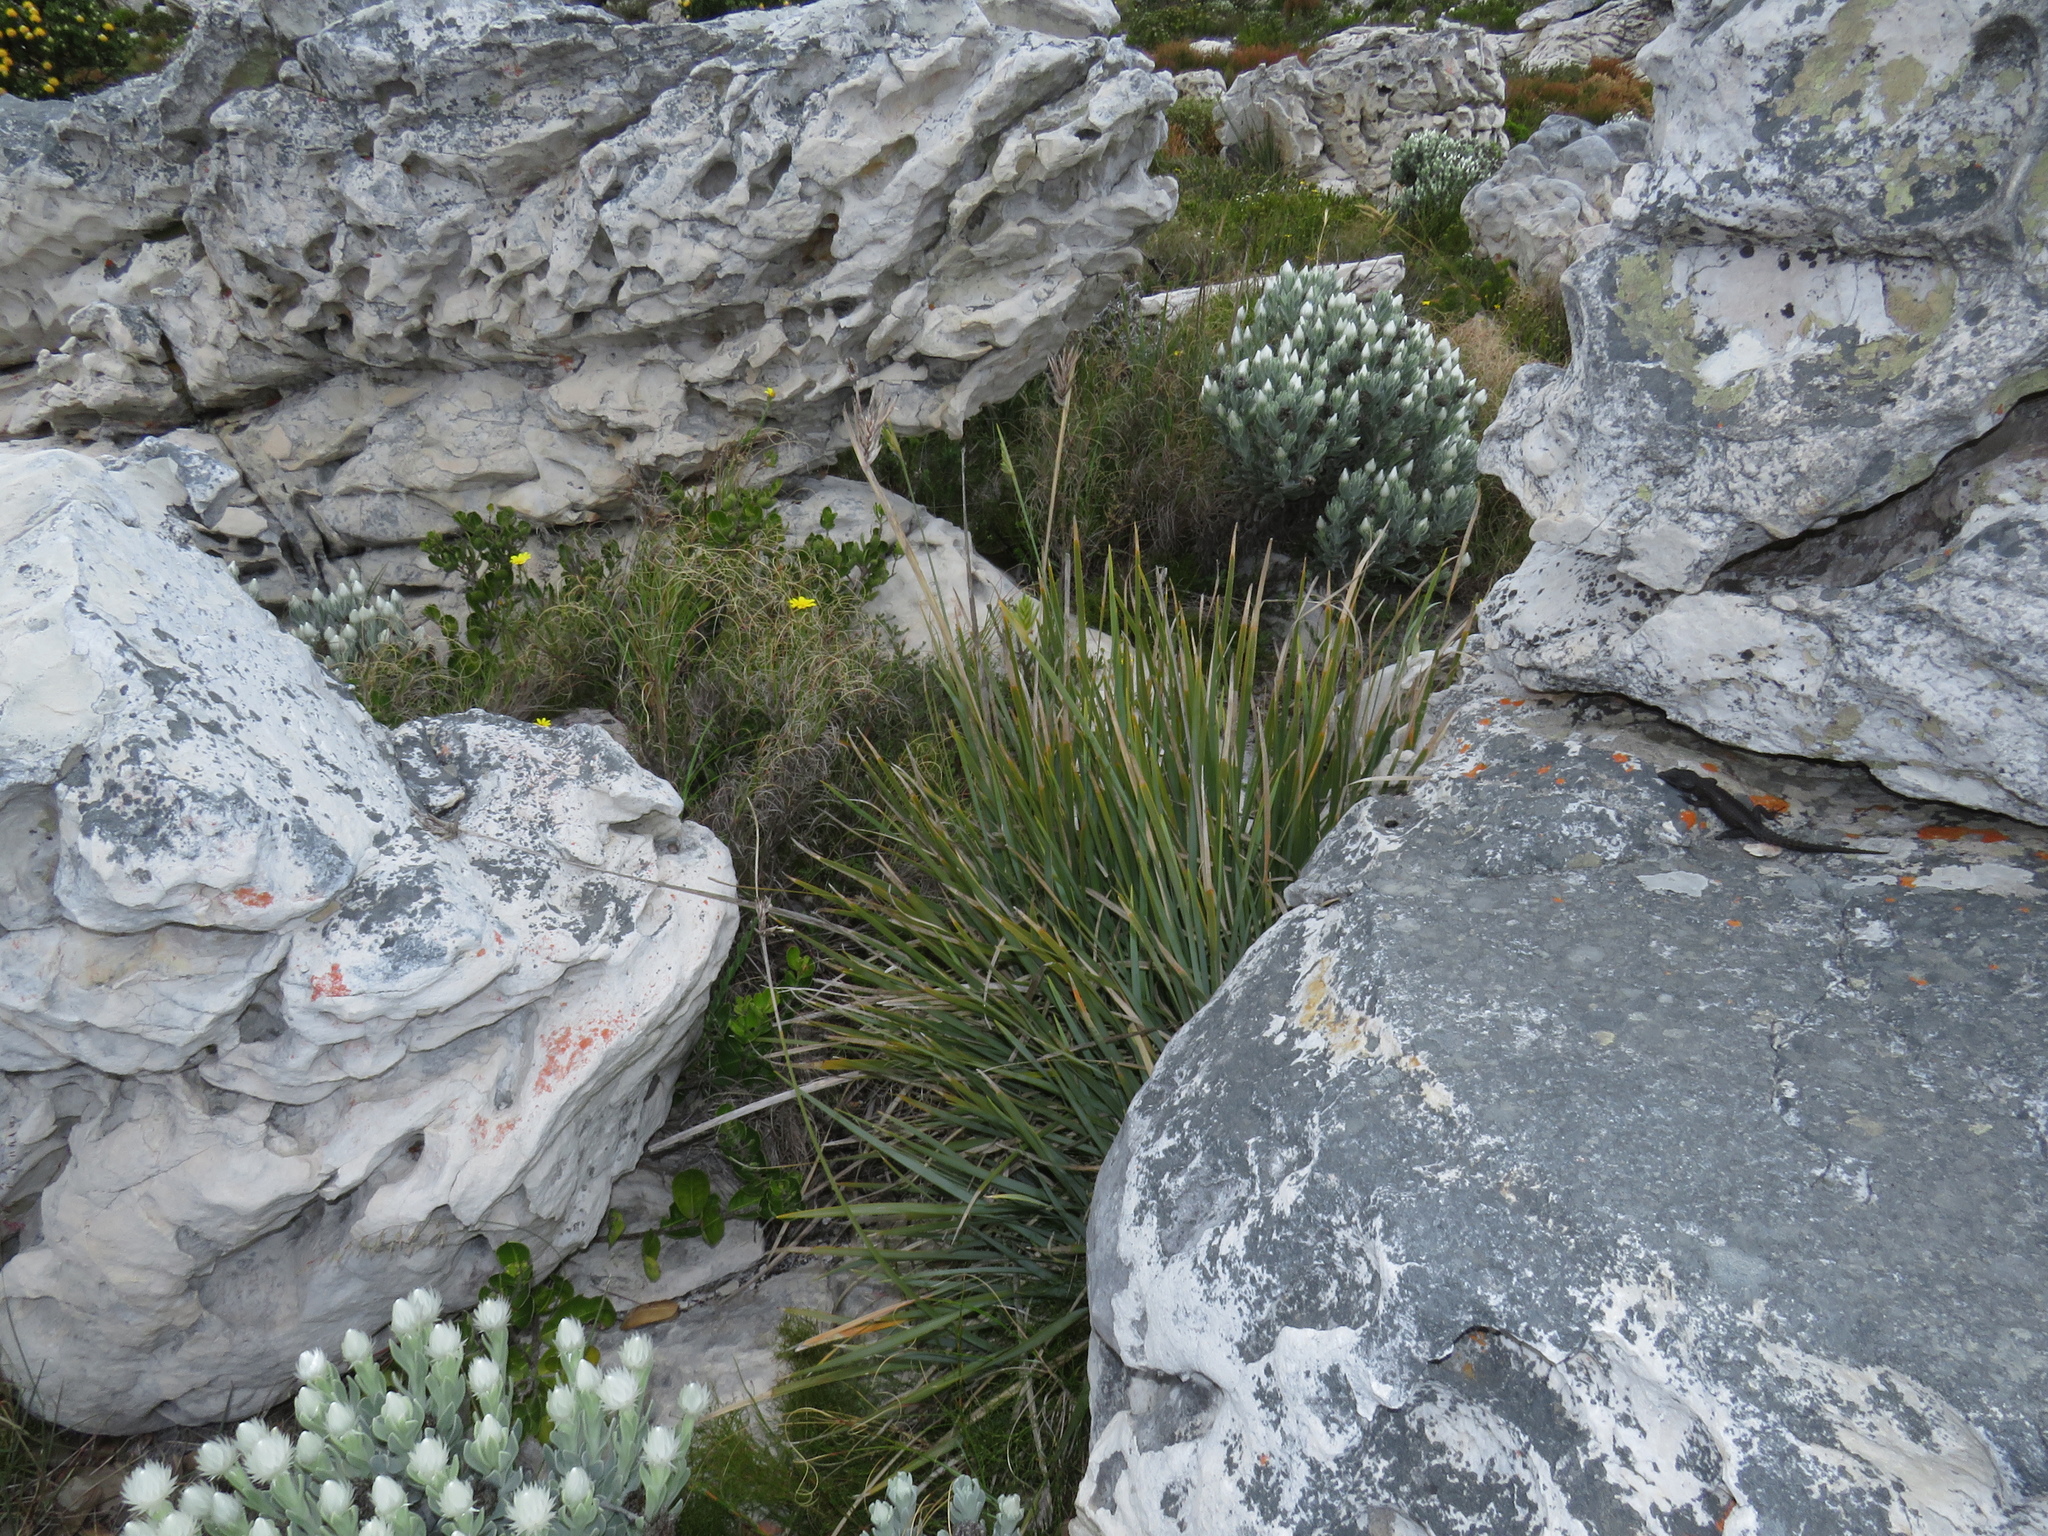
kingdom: Plantae
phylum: Tracheophyta
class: Liliopsida
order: Asparagales
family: Iridaceae
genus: Bobartia
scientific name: Bobartia gladiata
